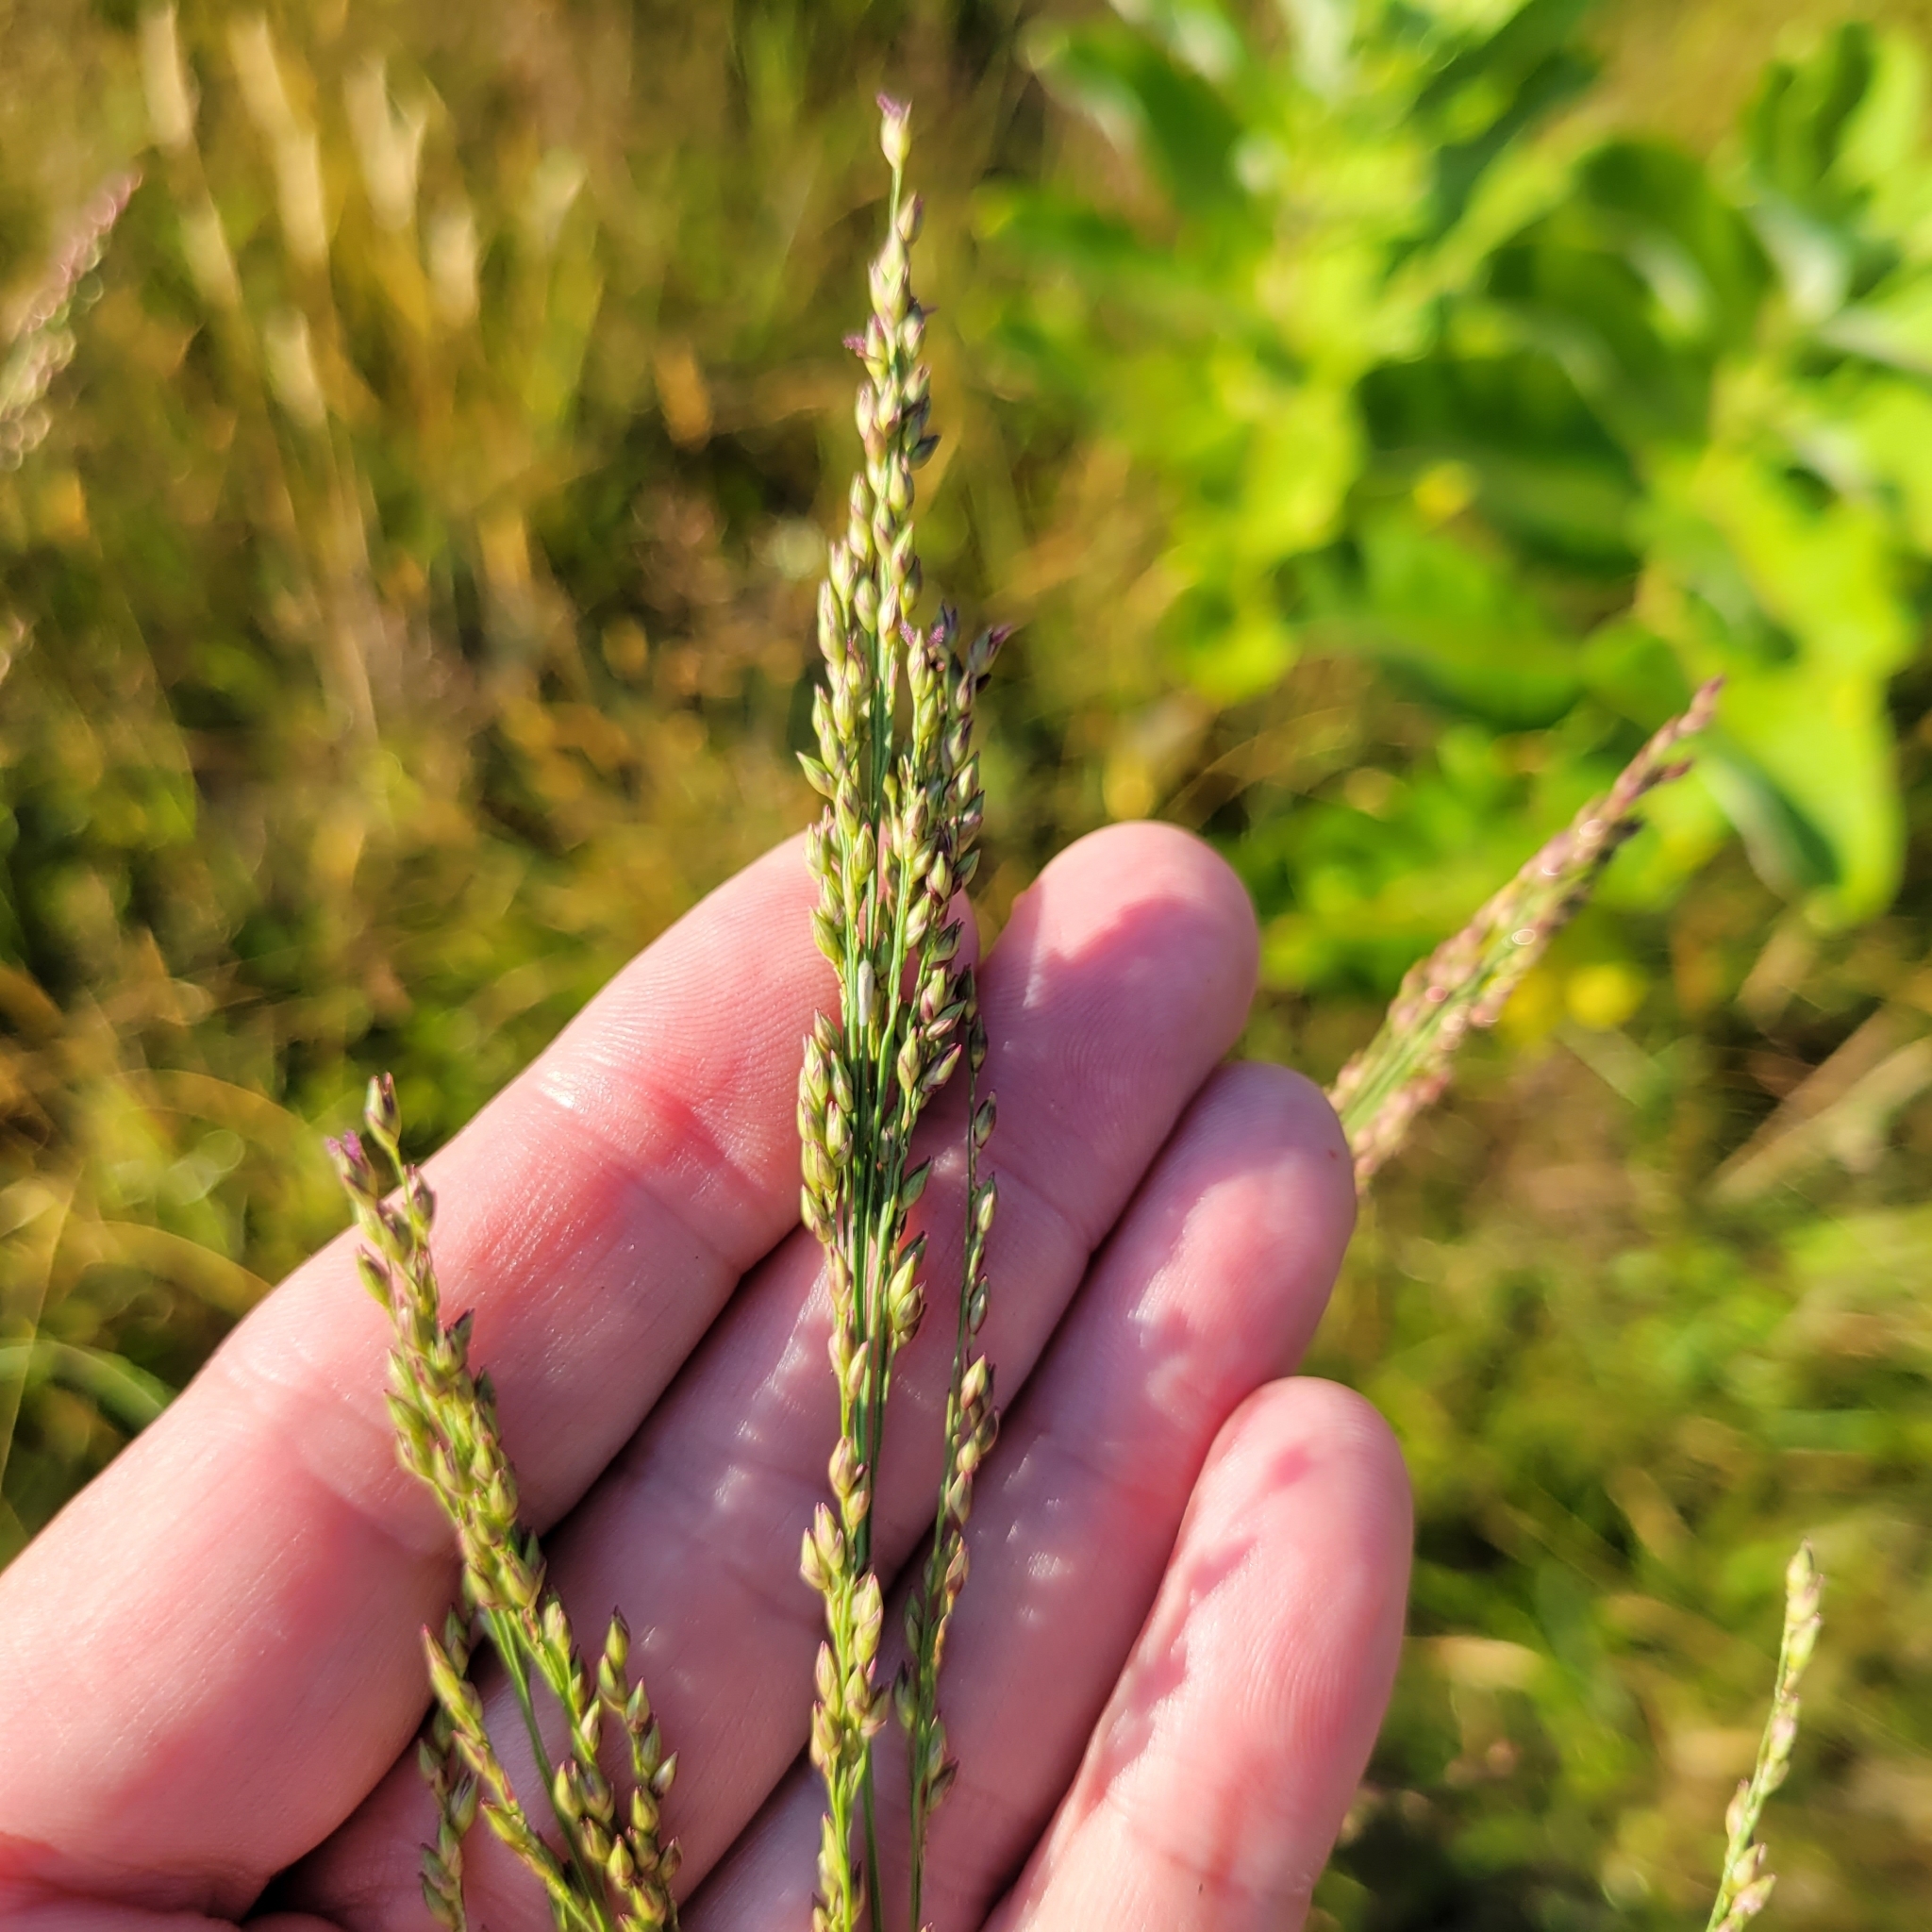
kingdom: Plantae
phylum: Tracheophyta
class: Liliopsida
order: Poales
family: Poaceae
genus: Panicum
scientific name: Panicum virgatum
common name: Switchgrass
